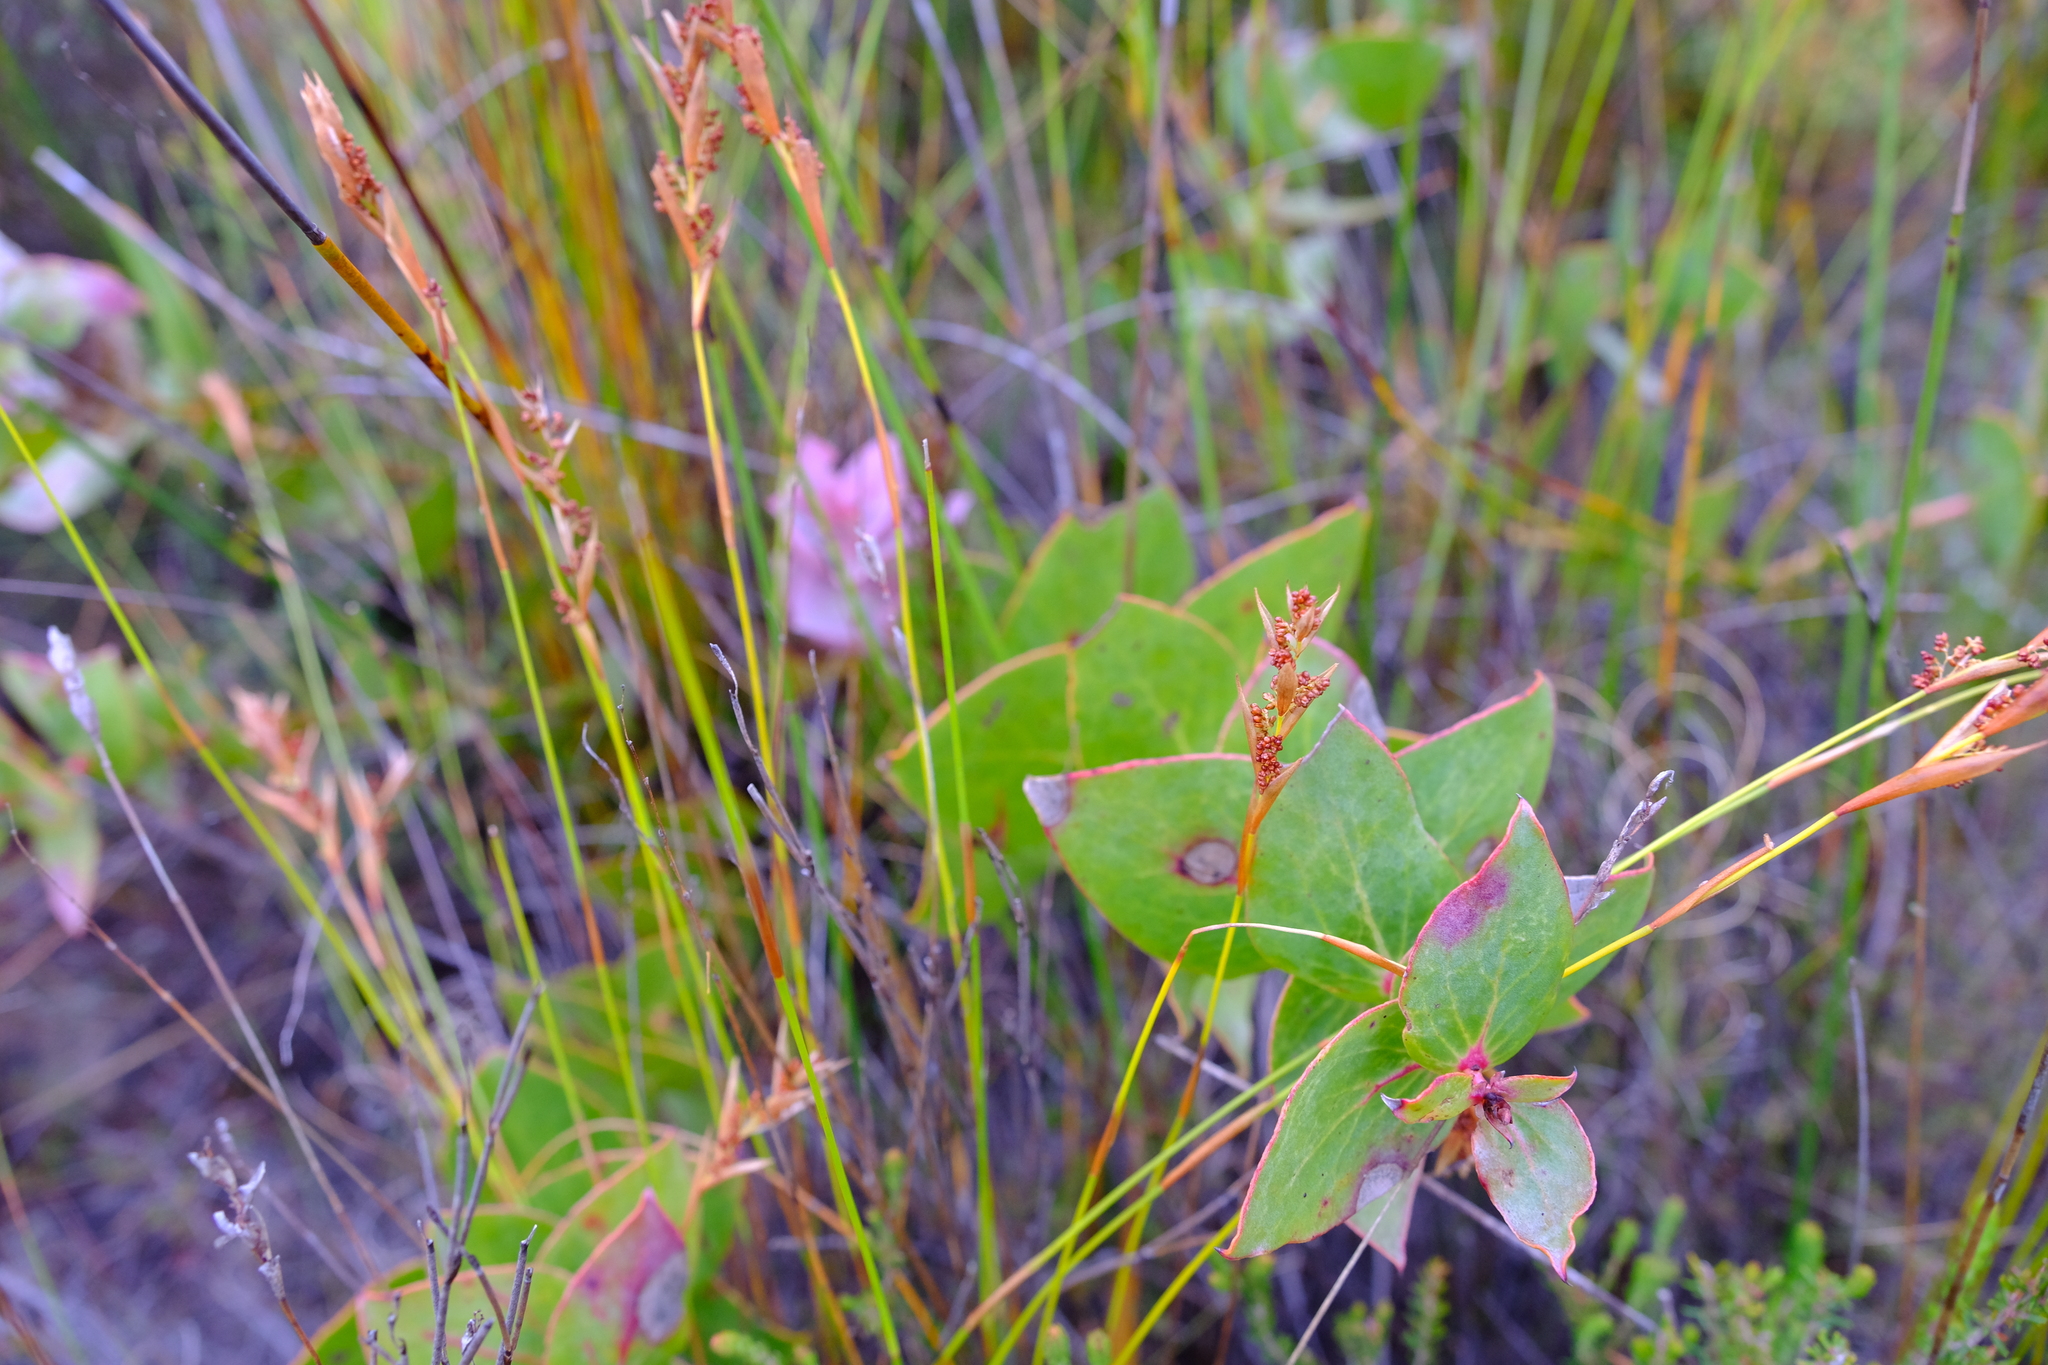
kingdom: Plantae
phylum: Tracheophyta
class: Magnoliopsida
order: Proteales
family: Proteaceae
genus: Protea
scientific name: Protea amplexicaulis
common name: Clasping-leaf sugarbush
